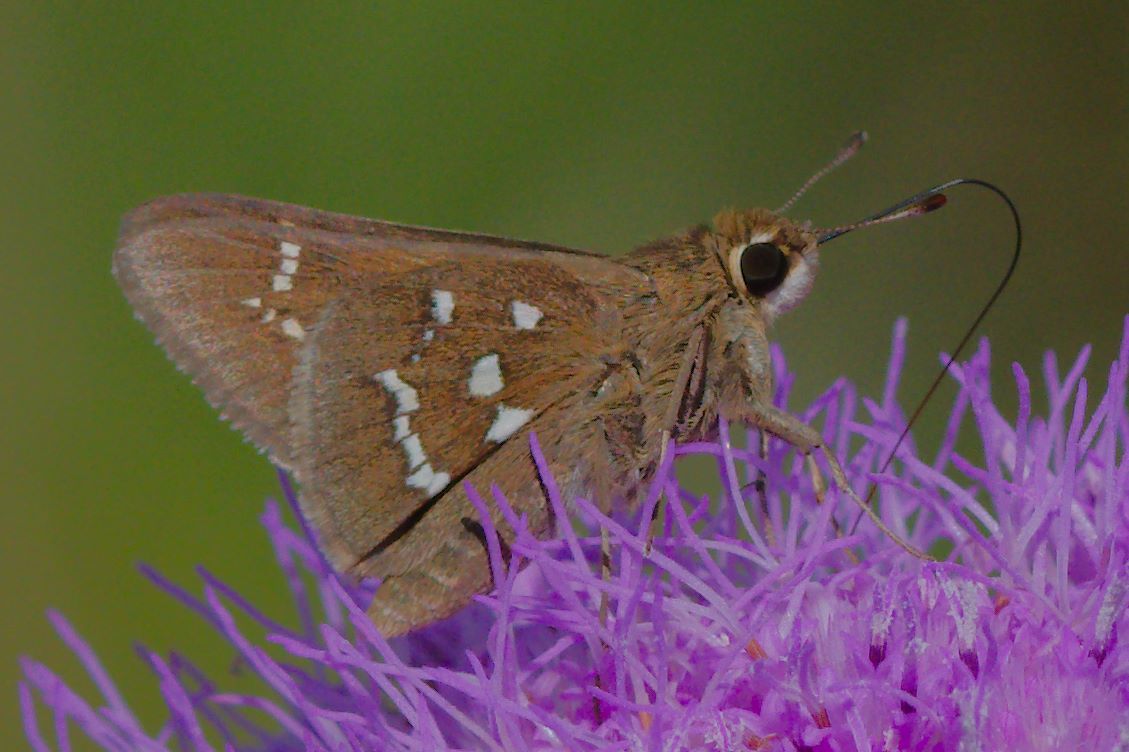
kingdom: Animalia
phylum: Arthropoda
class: Insecta
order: Lepidoptera
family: Hesperiidae
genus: Atrytonopsis
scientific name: Atrytonopsis loammi
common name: Loammi skipper
